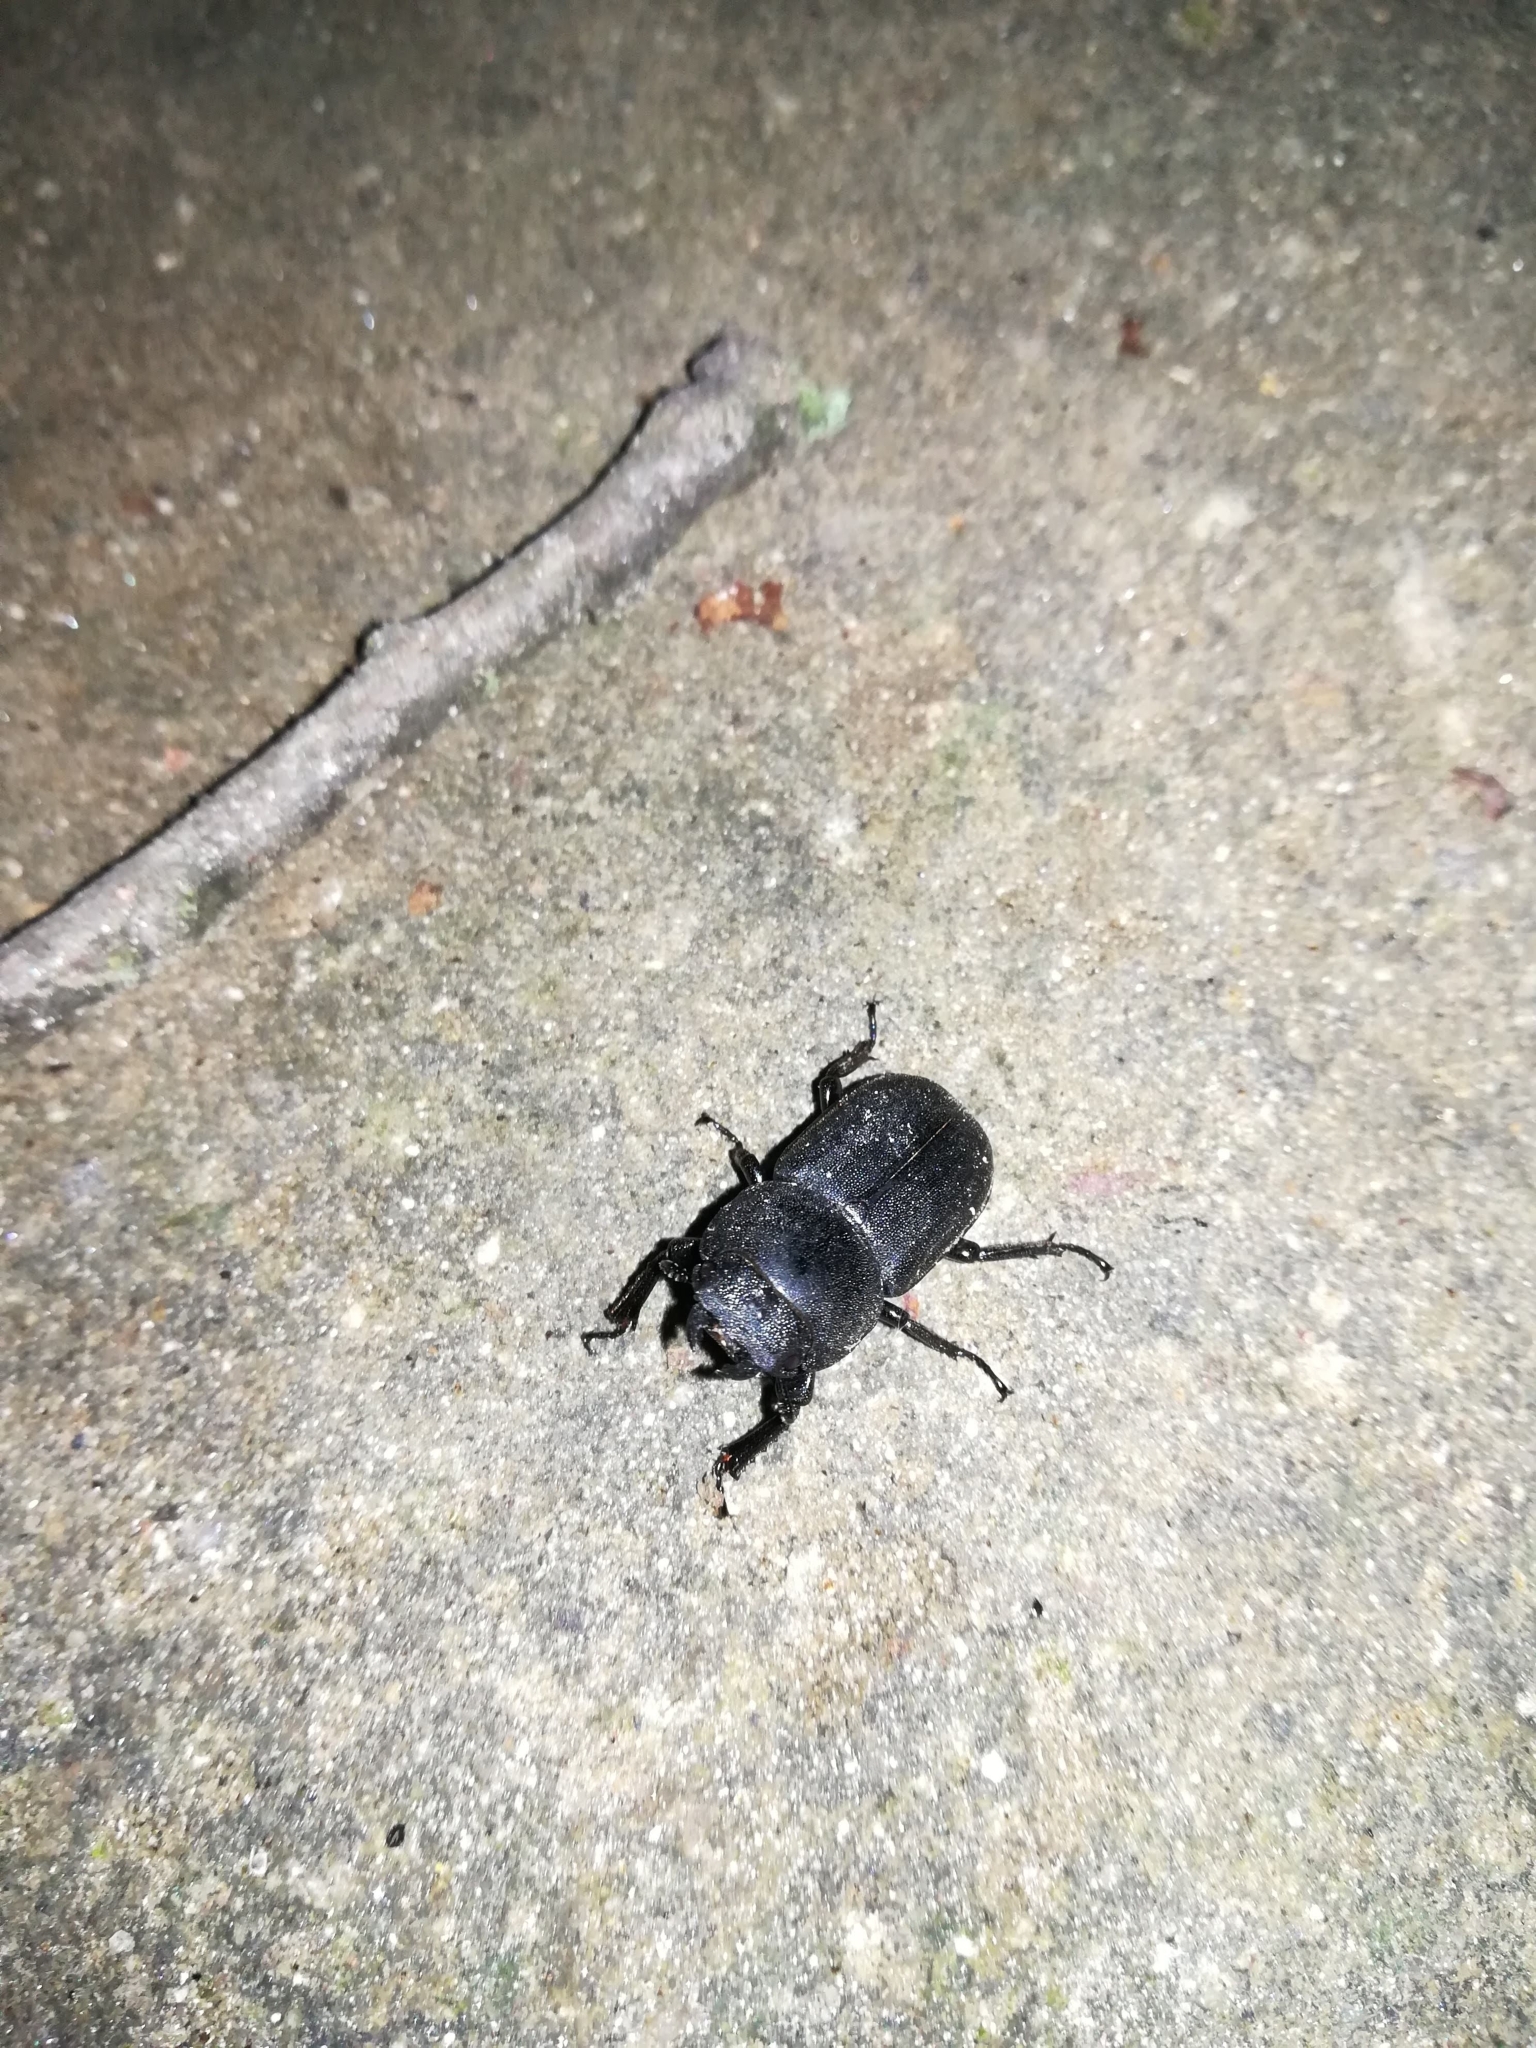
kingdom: Animalia
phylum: Arthropoda
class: Insecta
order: Coleoptera
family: Lucanidae
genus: Dorcus
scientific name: Dorcus parallelipipedus
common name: Lesser stag beetle
